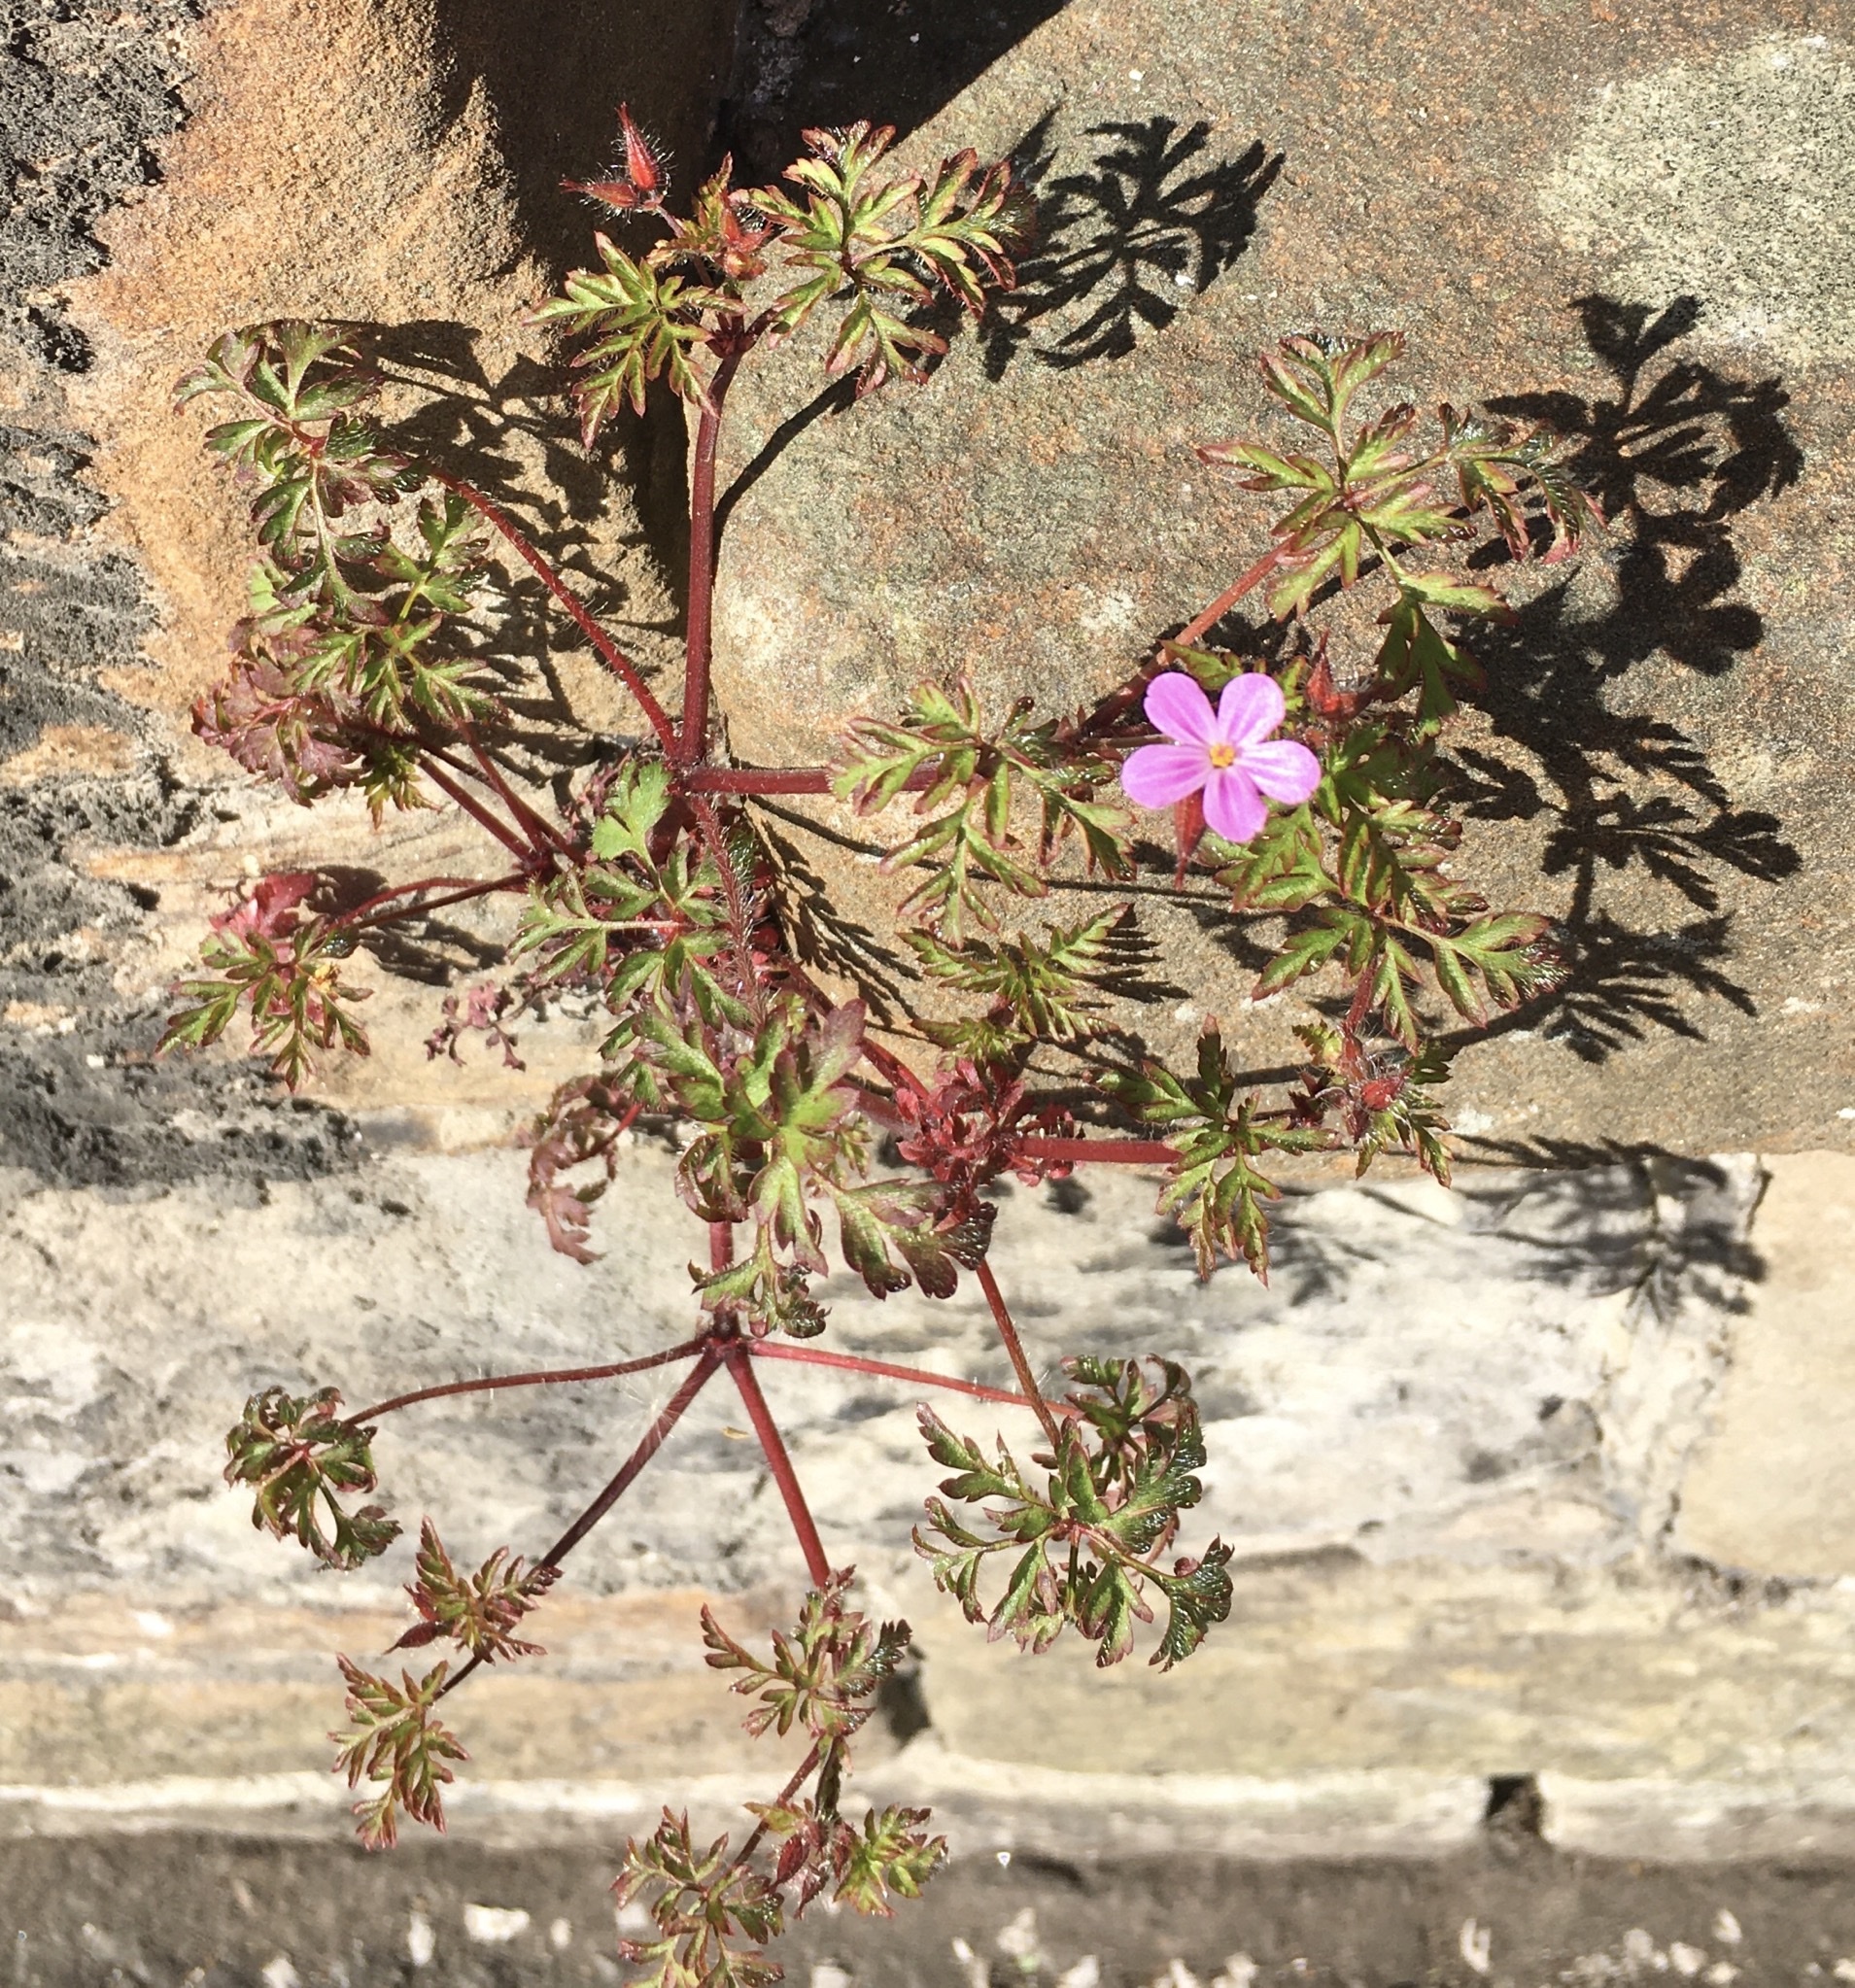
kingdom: Plantae
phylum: Tracheophyta
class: Magnoliopsida
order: Geraniales
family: Geraniaceae
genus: Geranium
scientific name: Geranium robertianum
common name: Herb-robert
